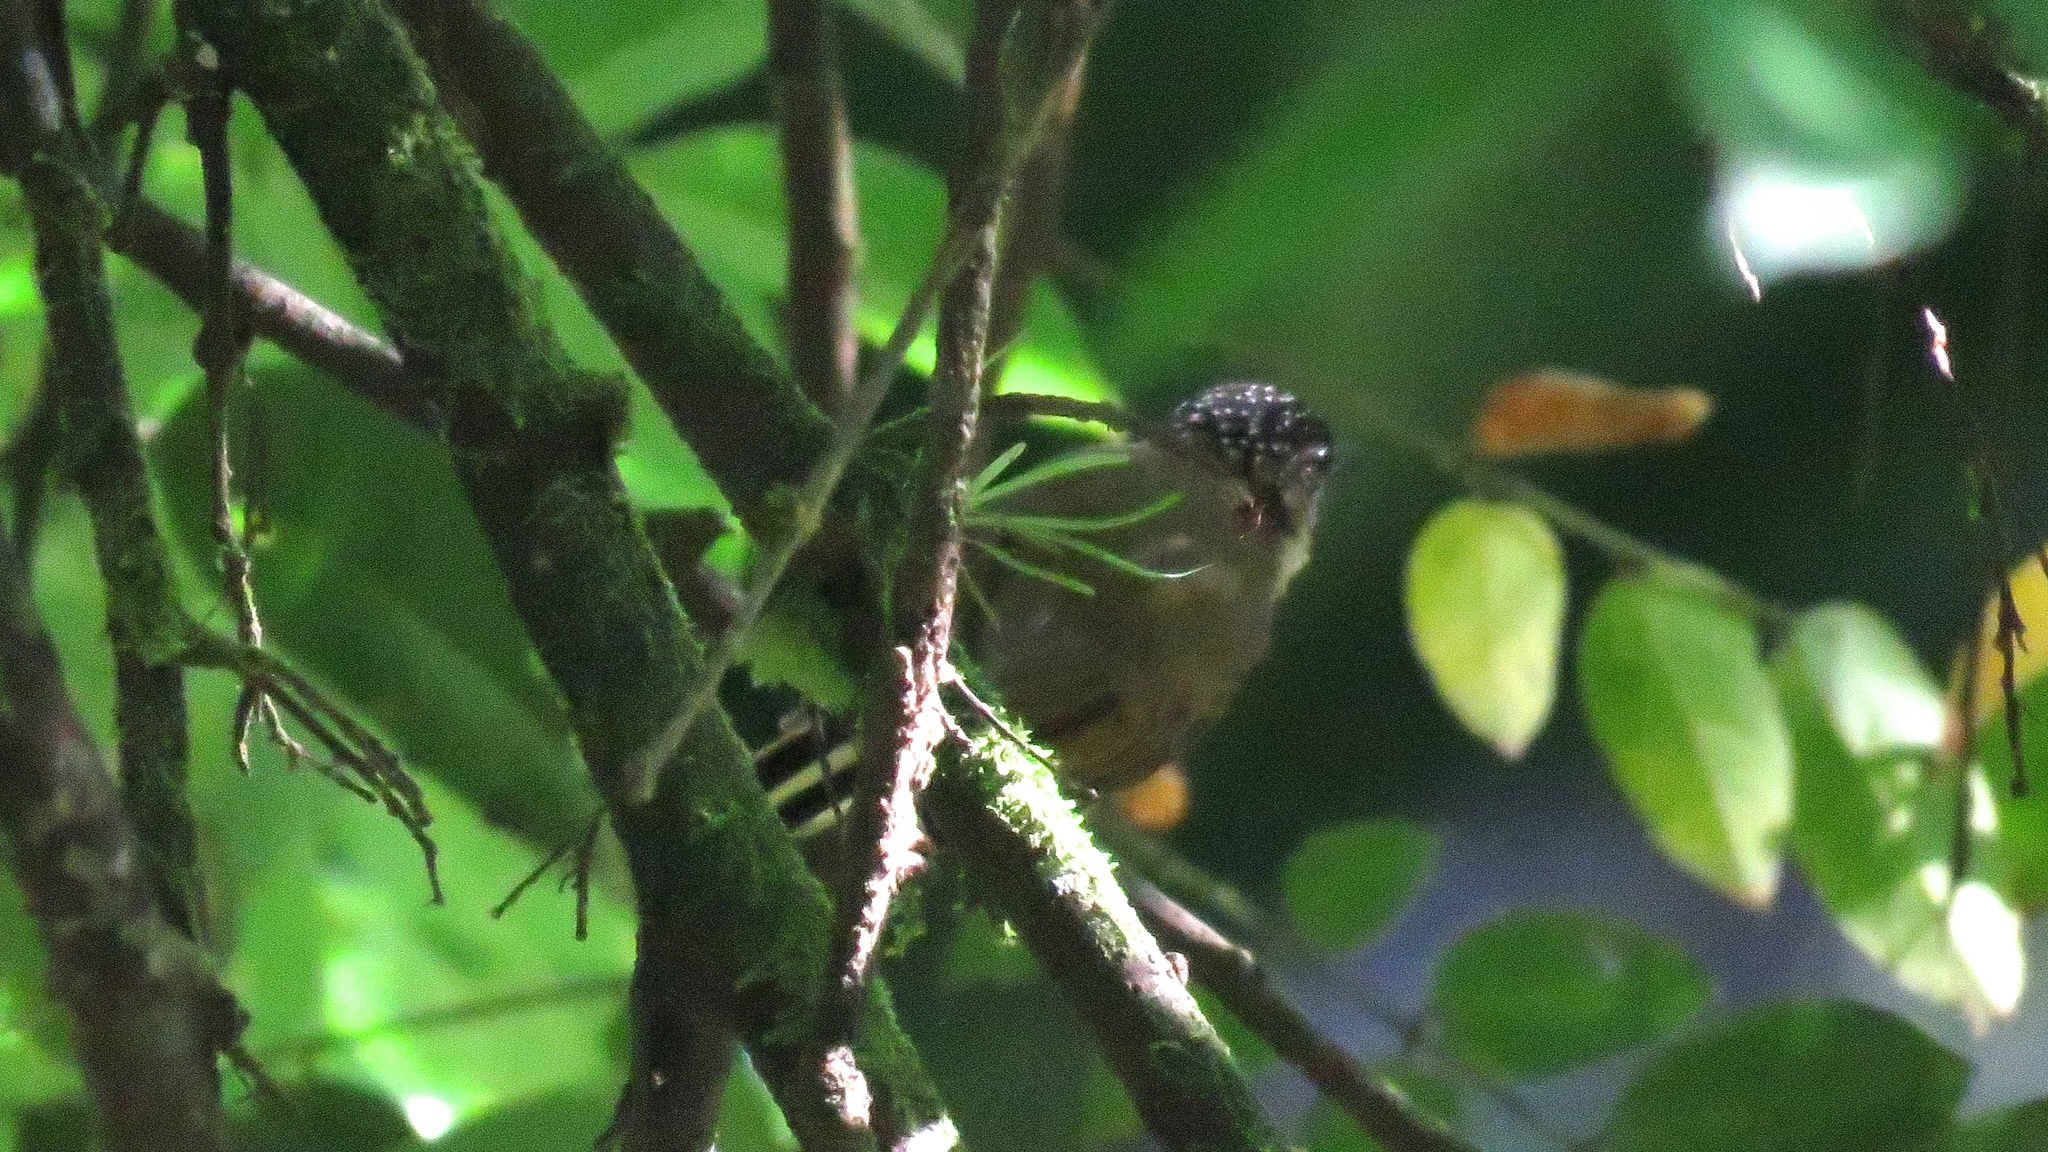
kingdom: Animalia
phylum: Chordata
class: Aves
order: Piciformes
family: Picidae
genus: Picumnus
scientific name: Picumnus olivaceus
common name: Olivaceous piculet
